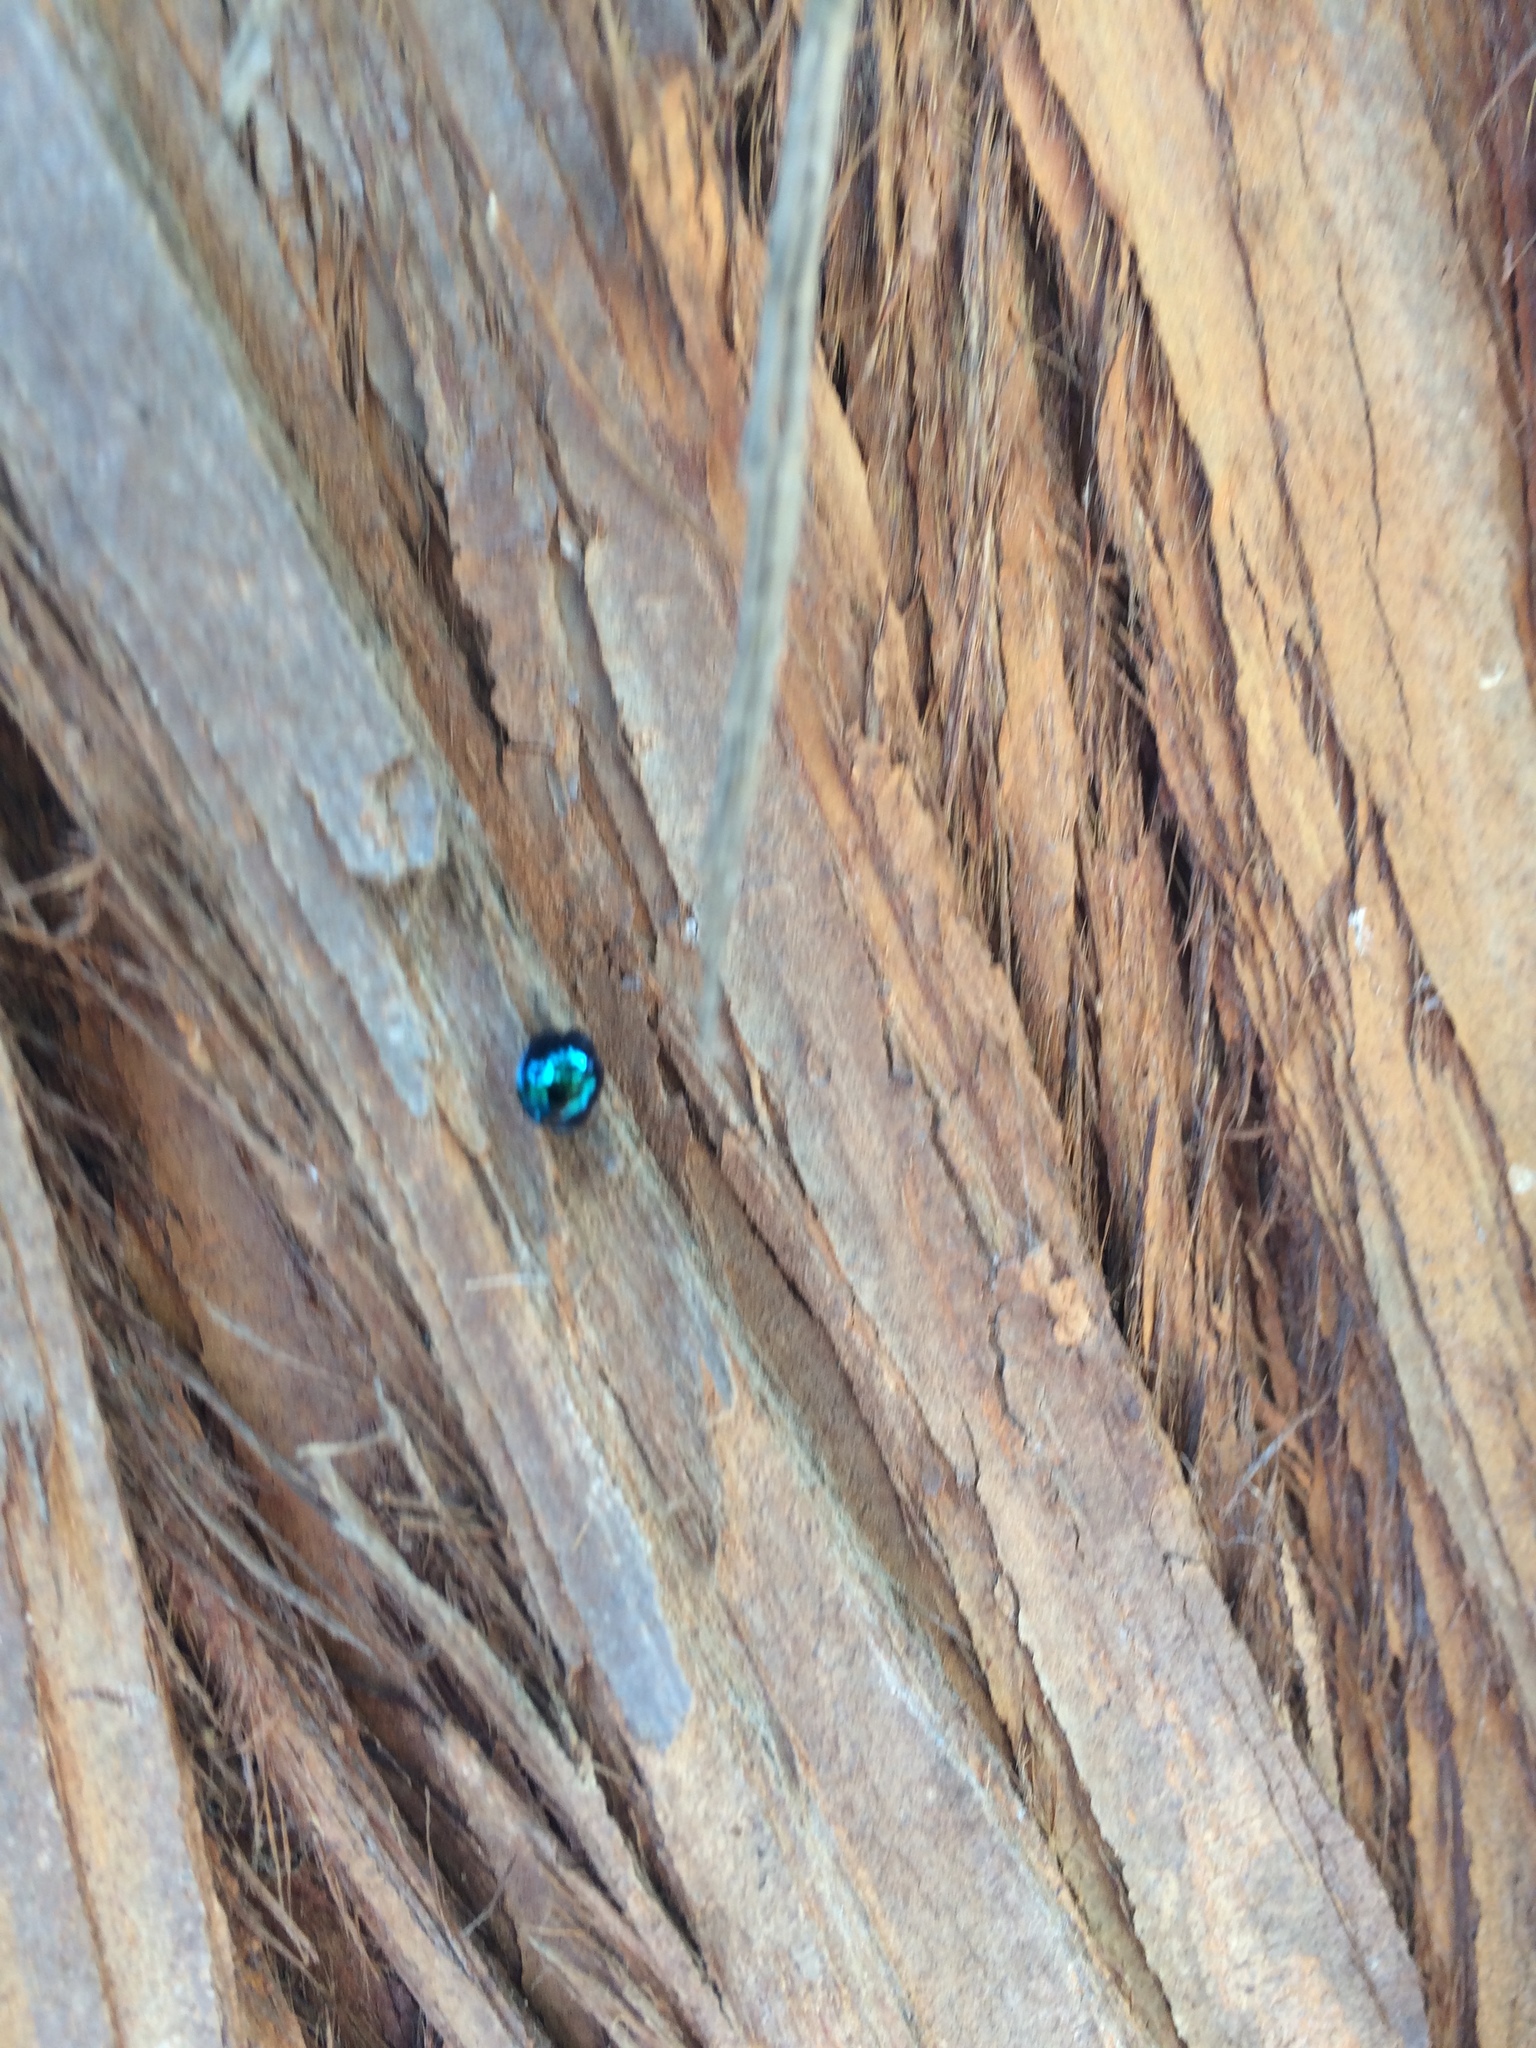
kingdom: Animalia
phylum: Arthropoda
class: Insecta
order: Coleoptera
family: Coccinellidae
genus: Halmus
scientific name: Halmus chalybeus
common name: Steel blue ladybird beetle
